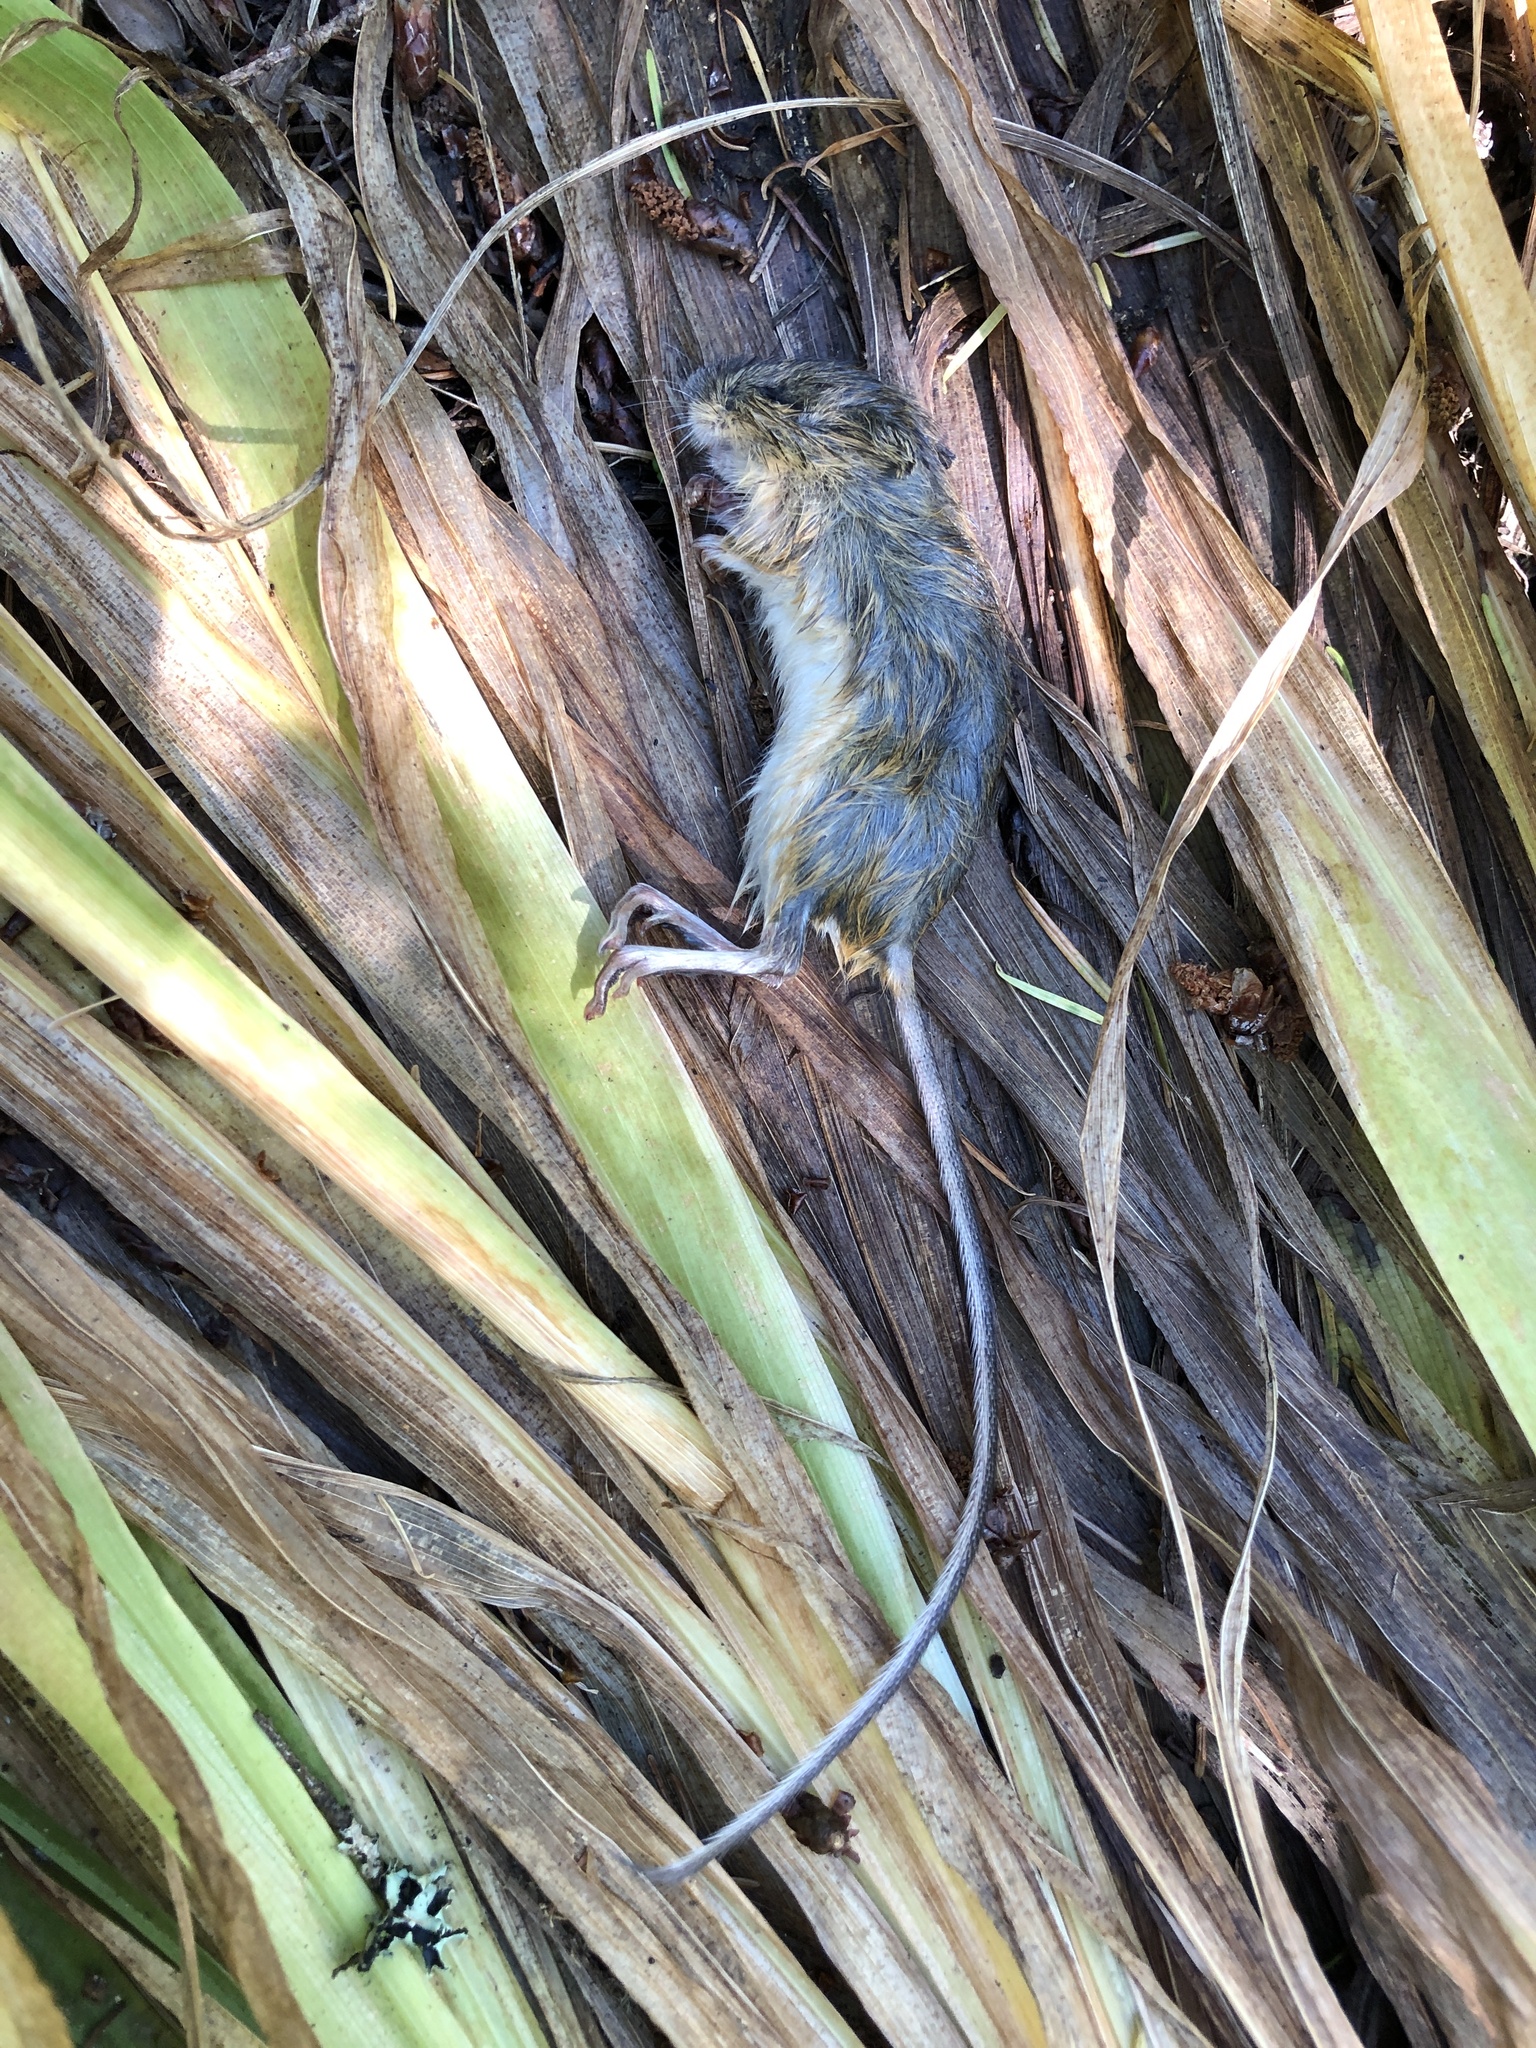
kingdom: Animalia
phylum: Chordata
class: Mammalia
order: Rodentia
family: Dipodidae
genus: Zapus
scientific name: Zapus trinotatus
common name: Pacific jumping mouse
